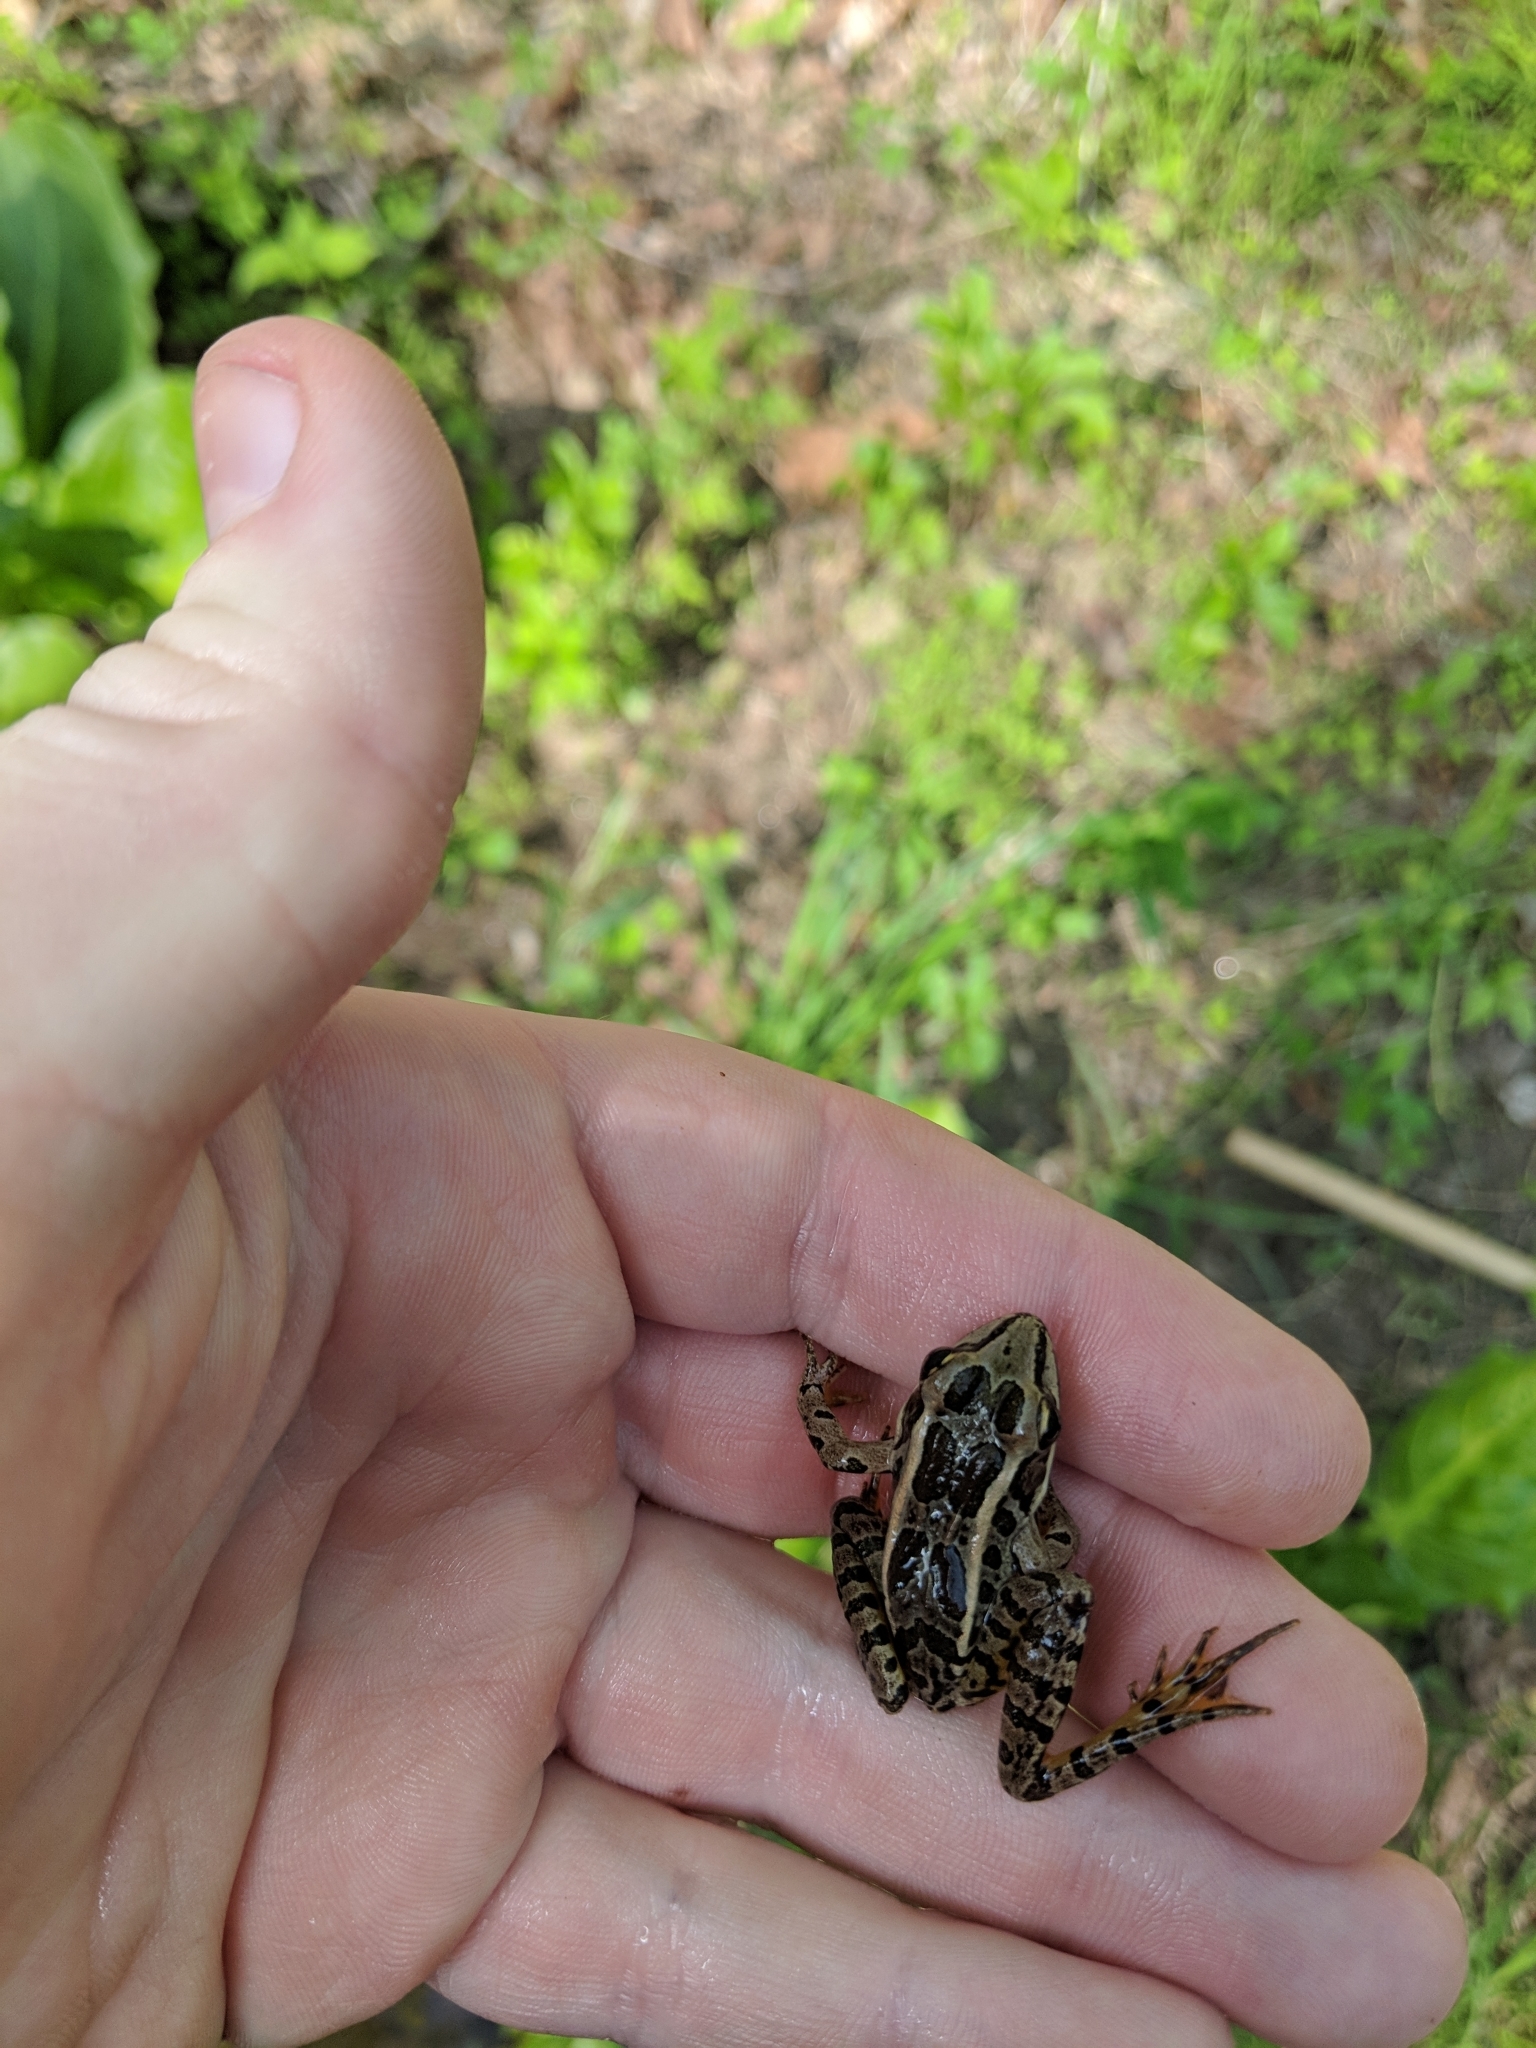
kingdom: Animalia
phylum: Chordata
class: Amphibia
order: Anura
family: Ranidae
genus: Lithobates
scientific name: Lithobates palustris
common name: Pickerel frog
